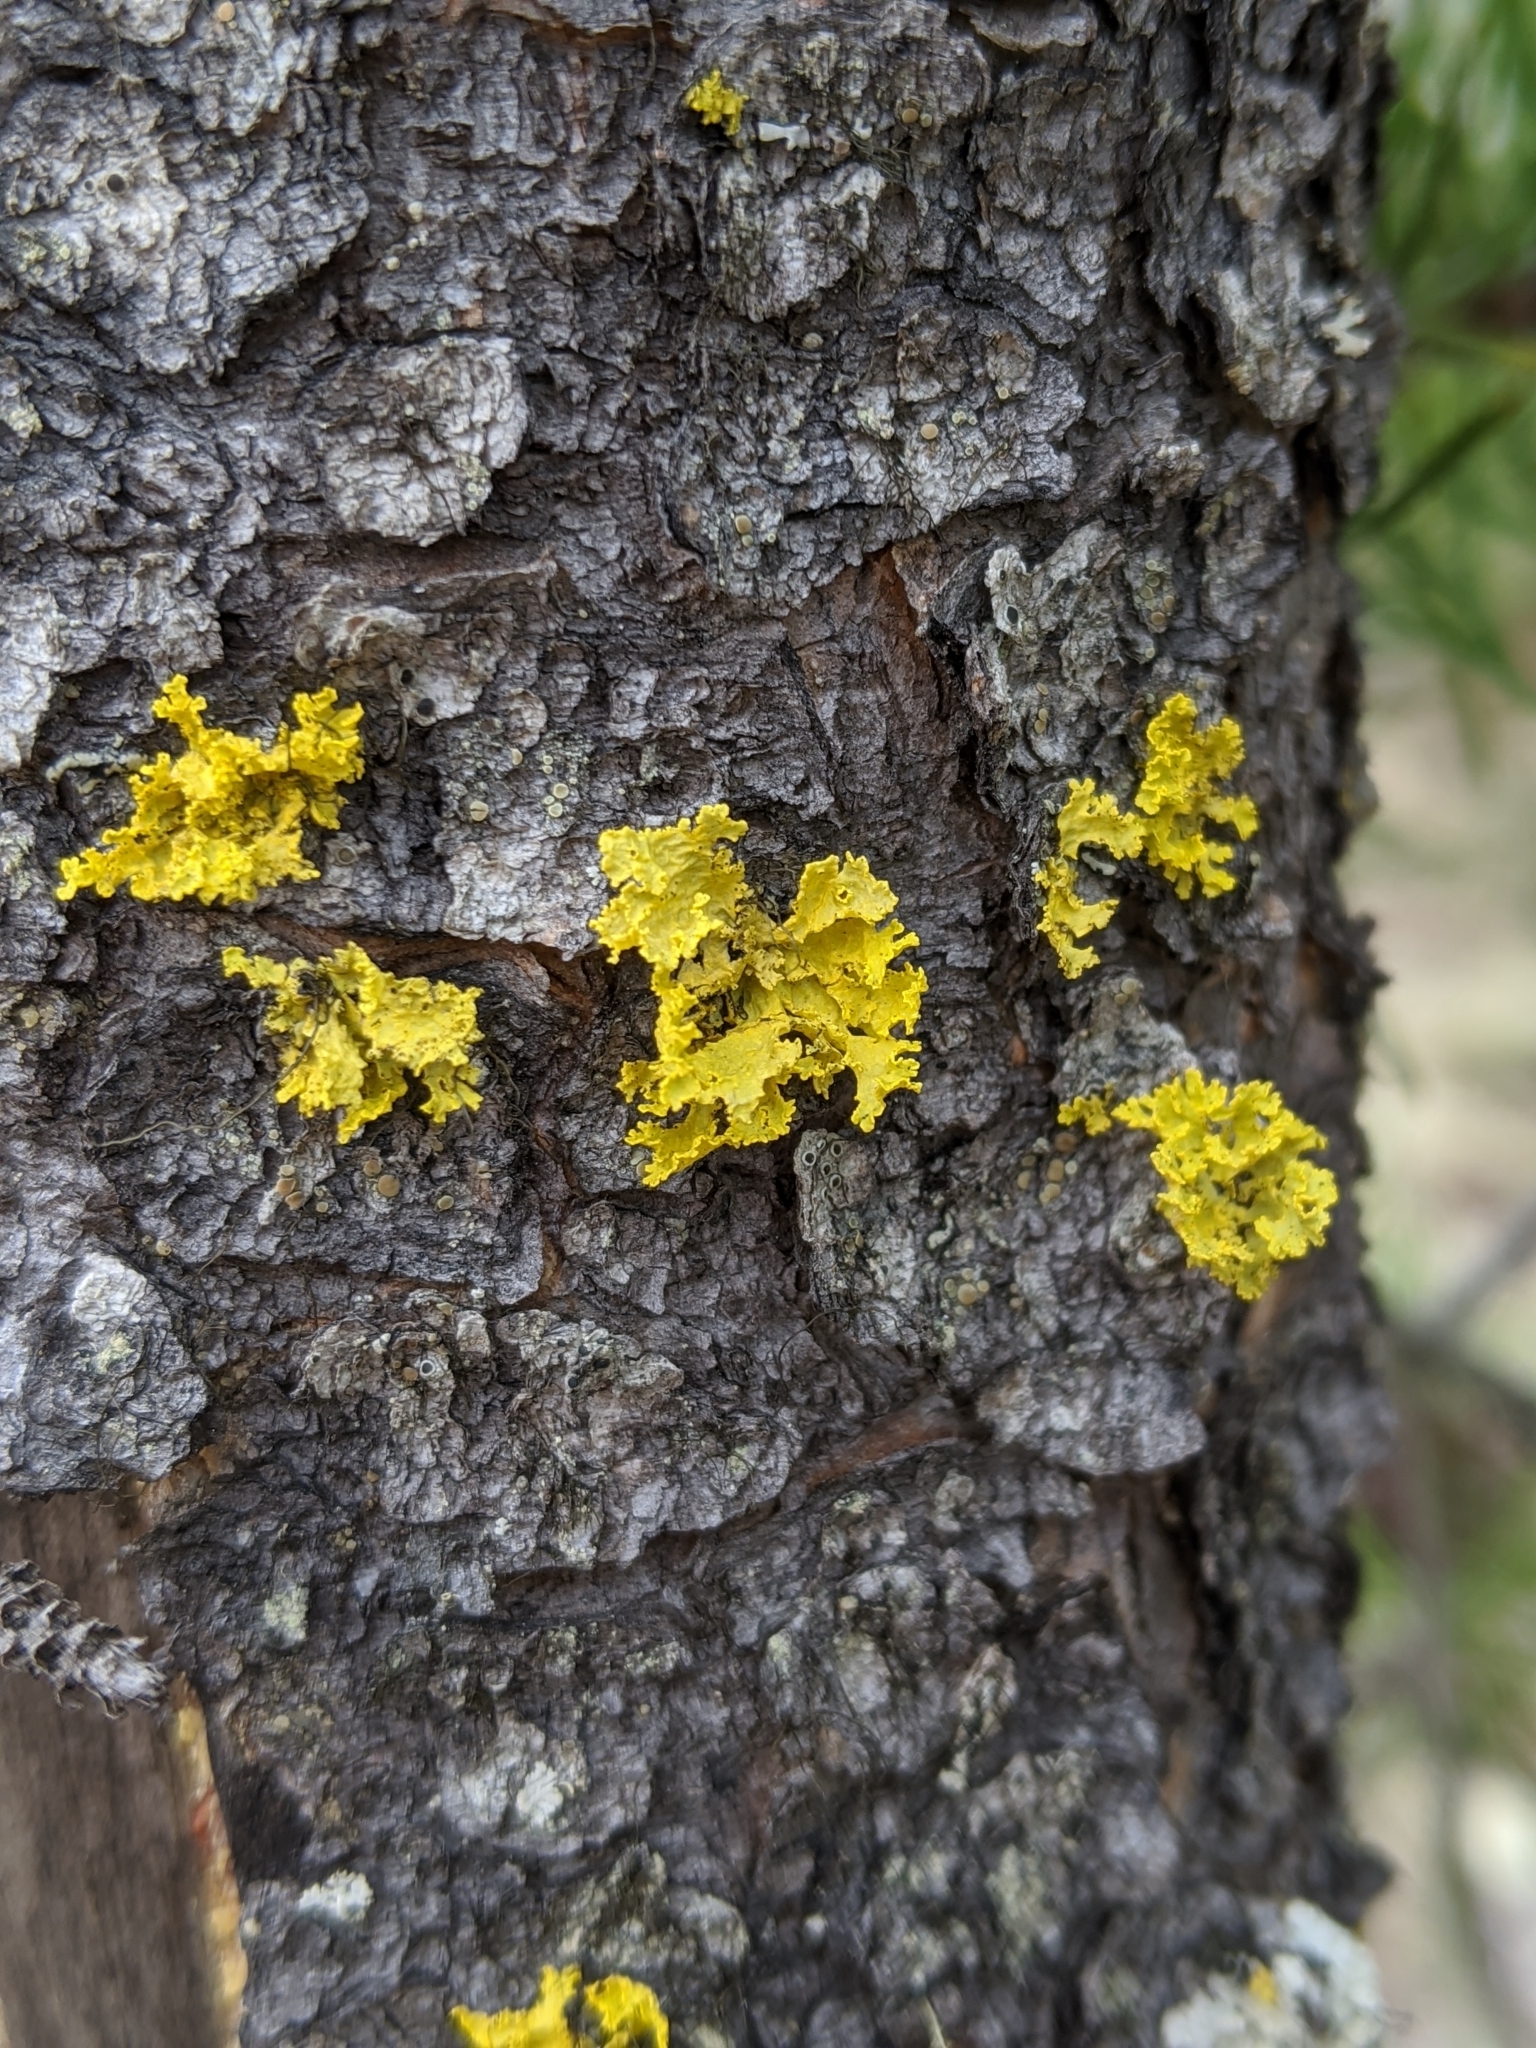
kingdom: Fungi
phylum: Ascomycota
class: Lecanoromycetes
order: Lecanorales
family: Parmeliaceae
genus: Vulpicida
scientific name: Vulpicida canadensis
